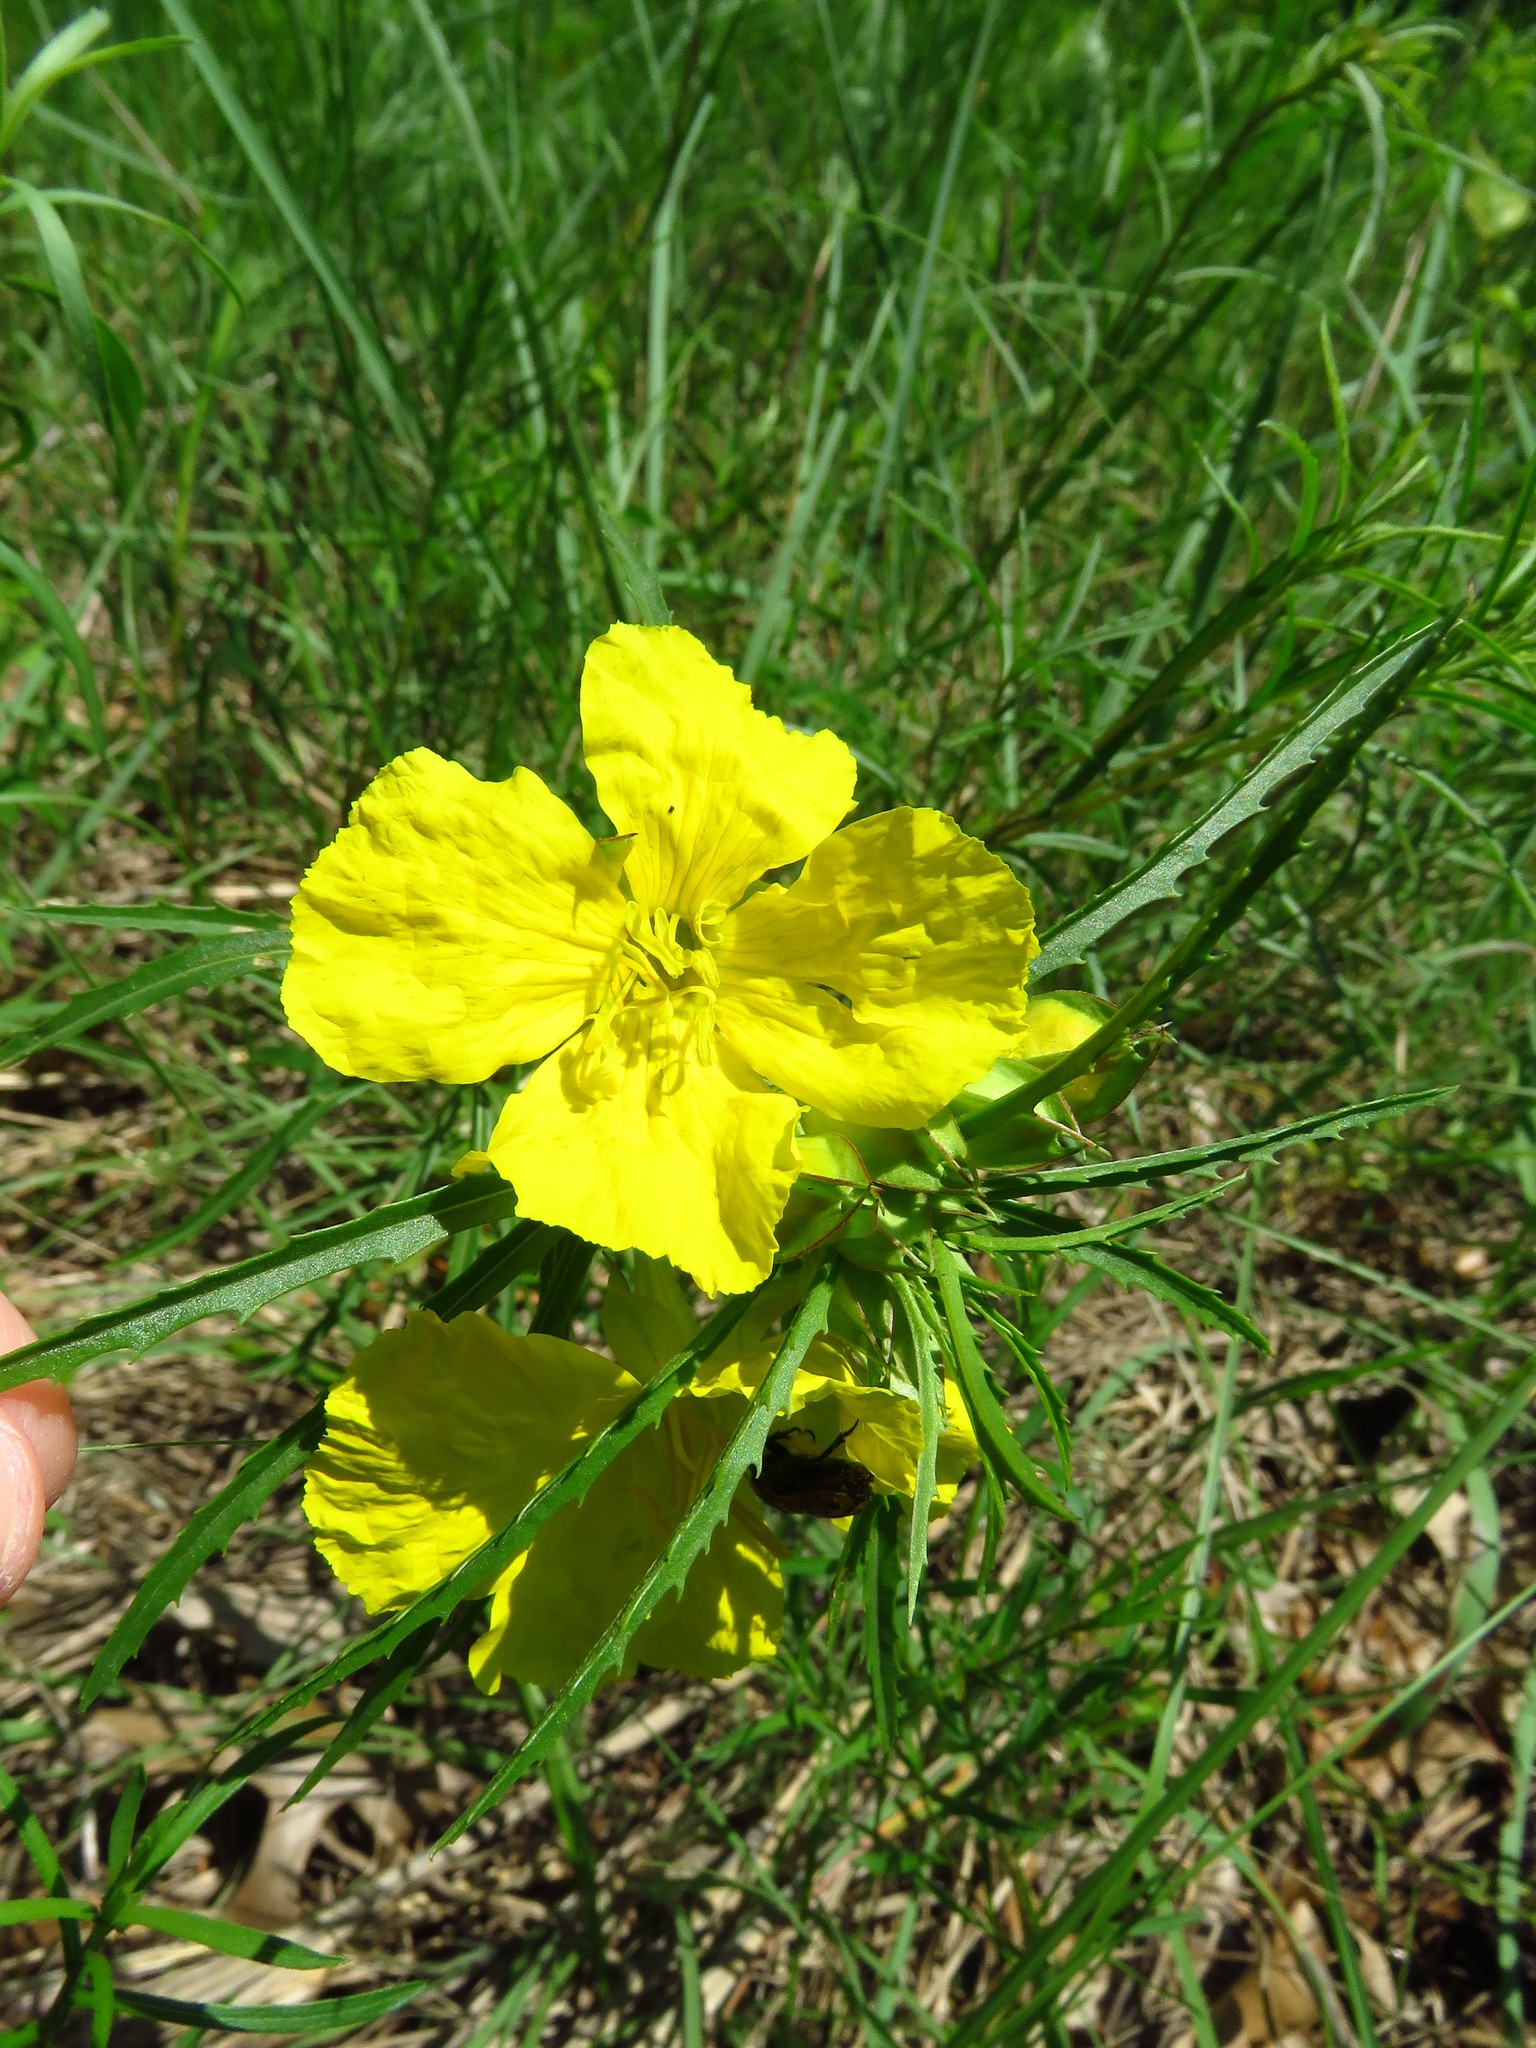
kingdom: Plantae
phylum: Tracheophyta
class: Magnoliopsida
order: Myrtales
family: Onagraceae
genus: Oenothera
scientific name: Oenothera
